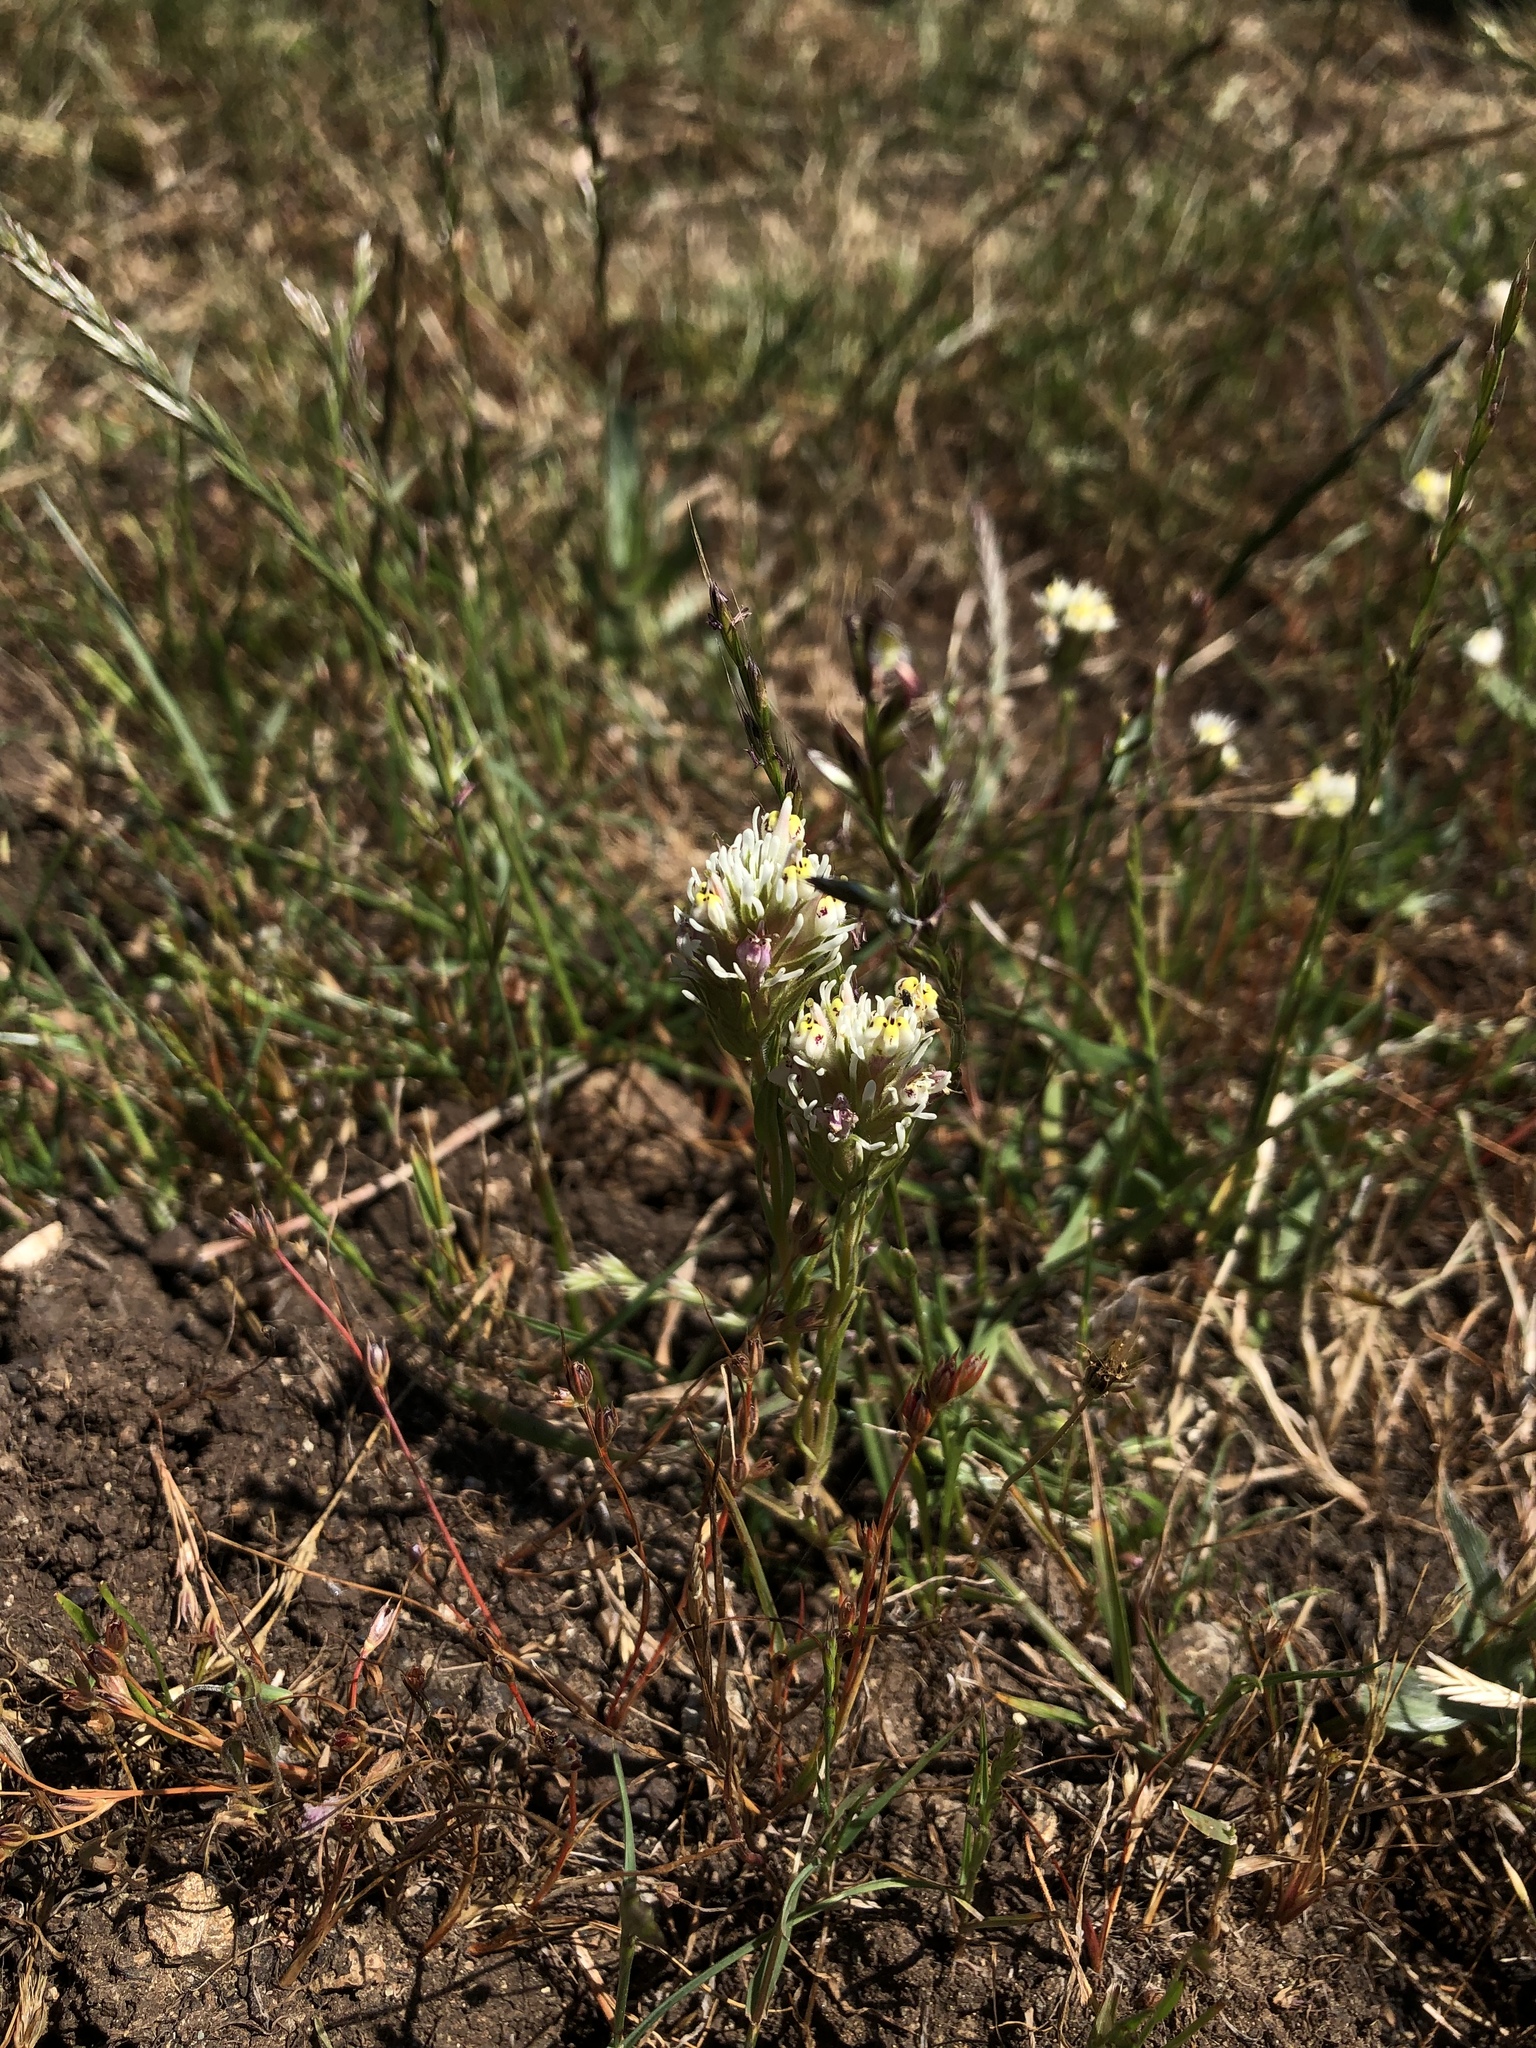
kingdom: Plantae
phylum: Tracheophyta
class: Magnoliopsida
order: Lamiales
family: Orobanchaceae
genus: Castilleja
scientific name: Castilleja densiflora
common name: Dense-flower indian paintbrush
